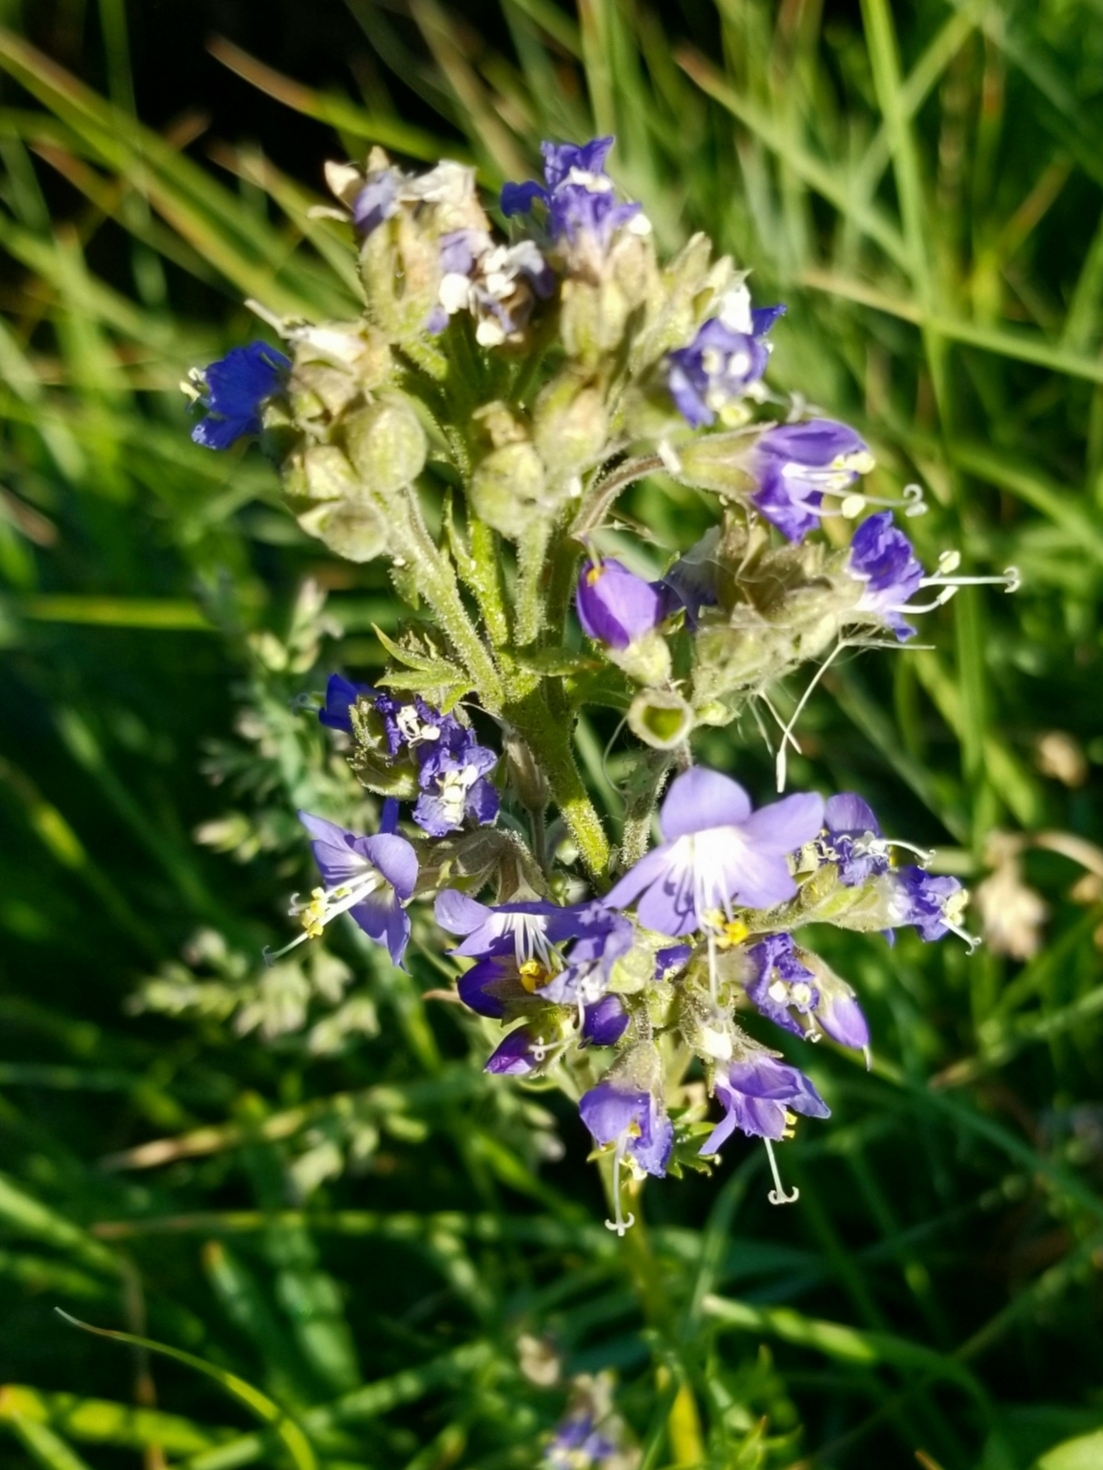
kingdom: Plantae
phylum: Tracheophyta
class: Magnoliopsida
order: Ericales
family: Polemoniaceae
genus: Polemonium
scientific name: Polemonium occidentale
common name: Western jacob's-ladder
